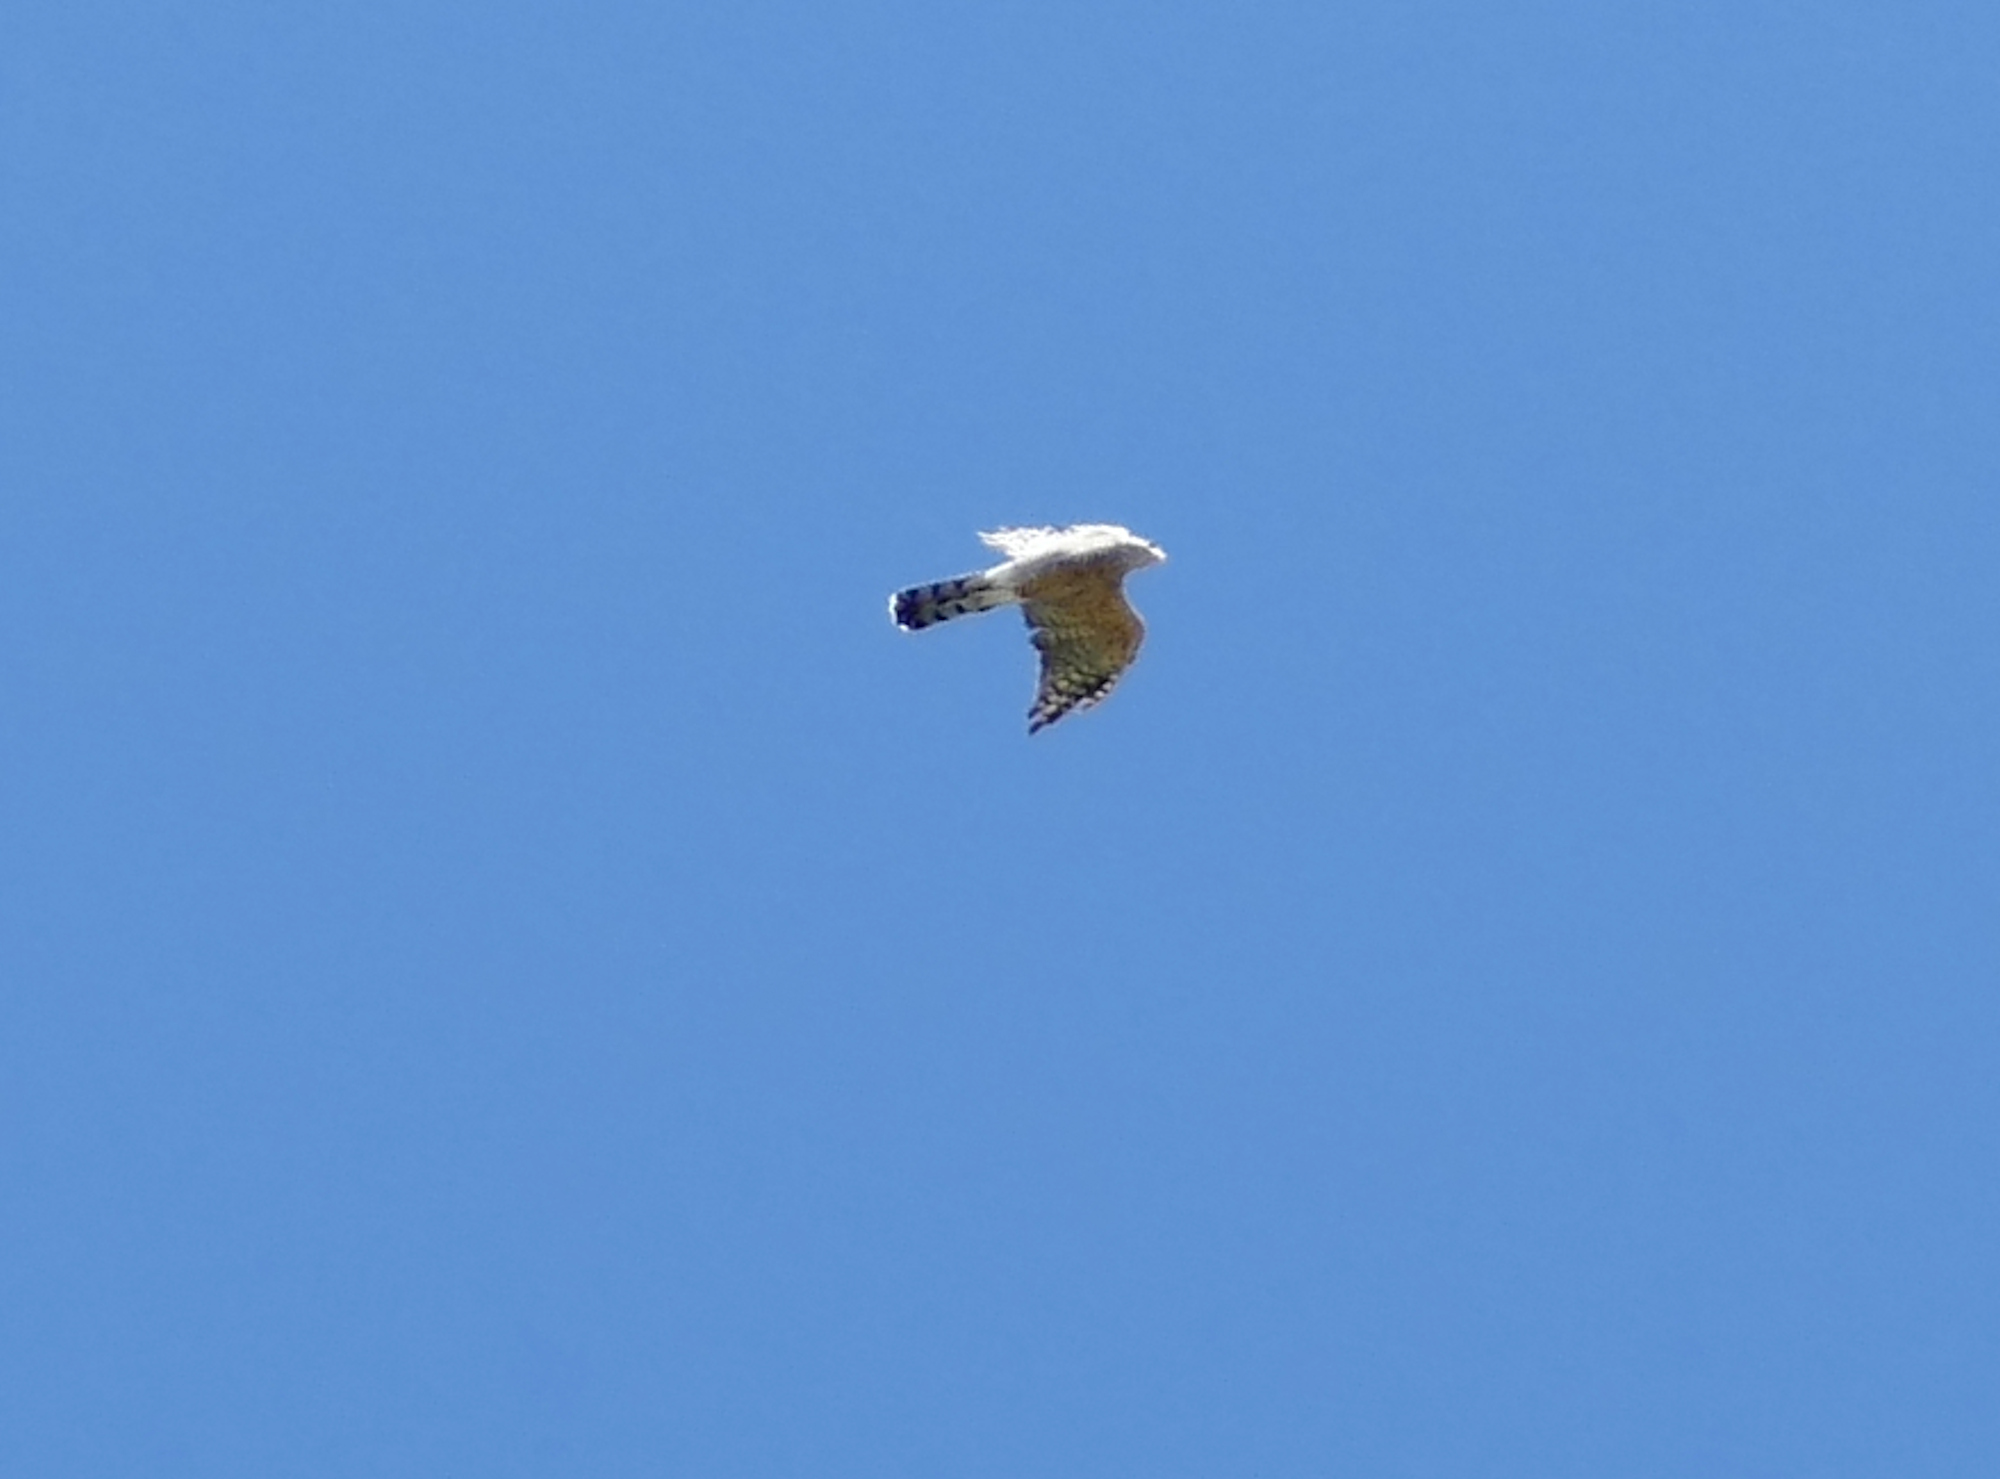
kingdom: Animalia
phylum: Chordata
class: Aves
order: Accipitriformes
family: Accipitridae
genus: Accipiter
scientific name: Accipiter cooperii
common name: Cooper's hawk
